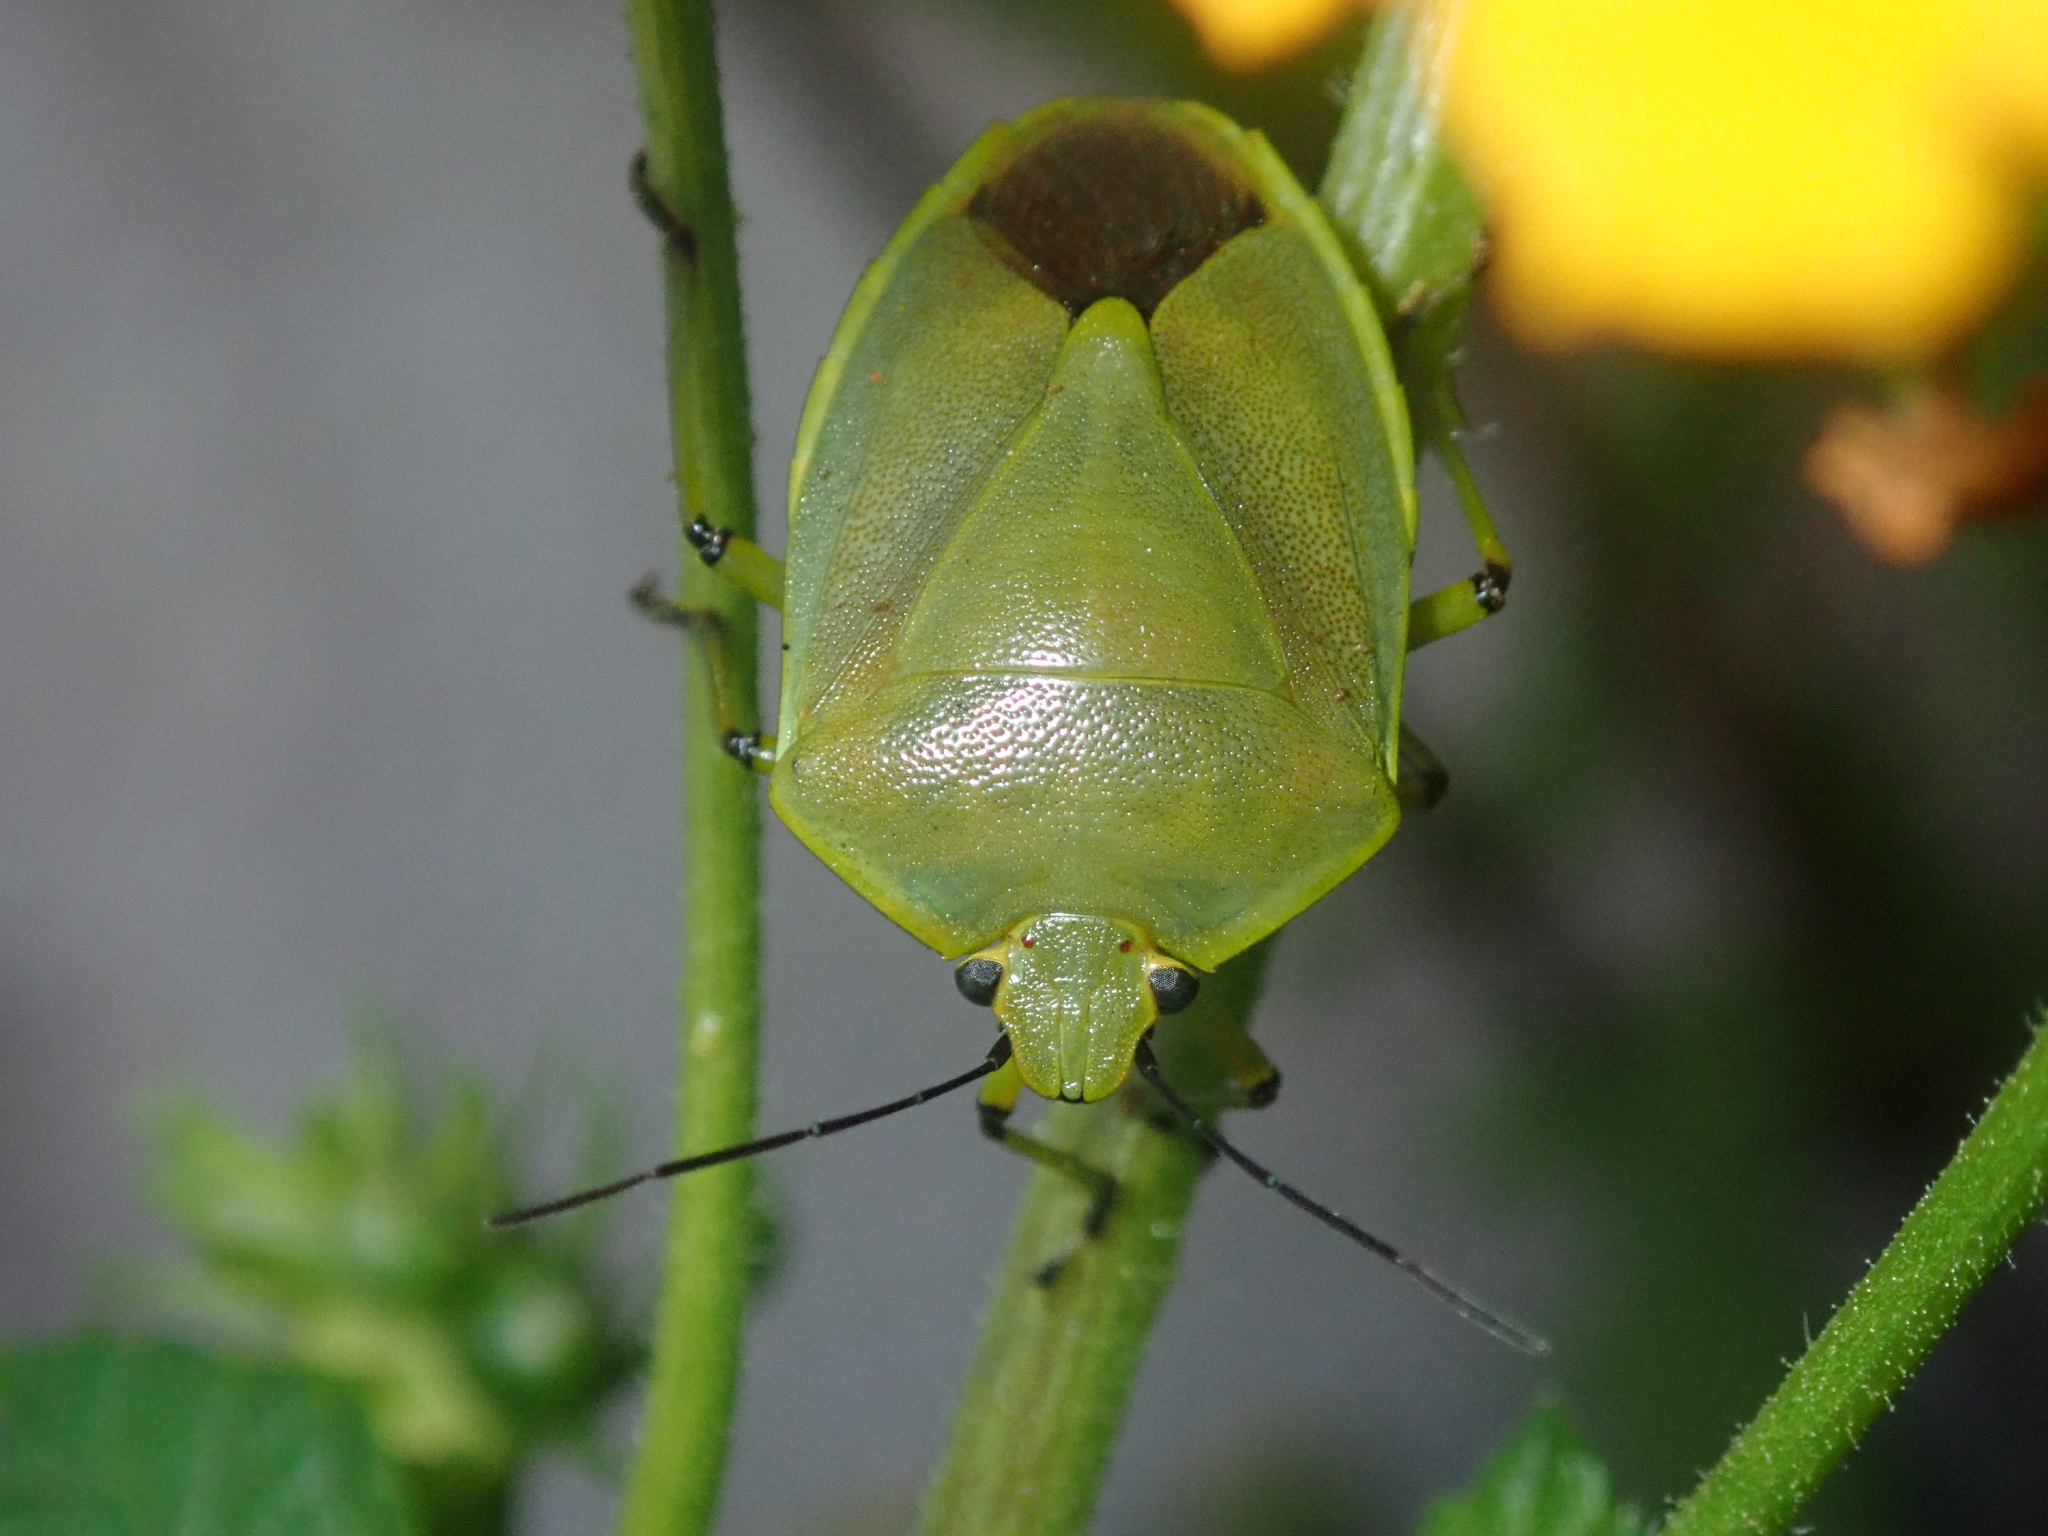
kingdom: Animalia
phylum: Arthropoda
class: Insecta
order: Hemiptera
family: Pentatomidae
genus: Chinavia
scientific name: Chinavia geniculata
